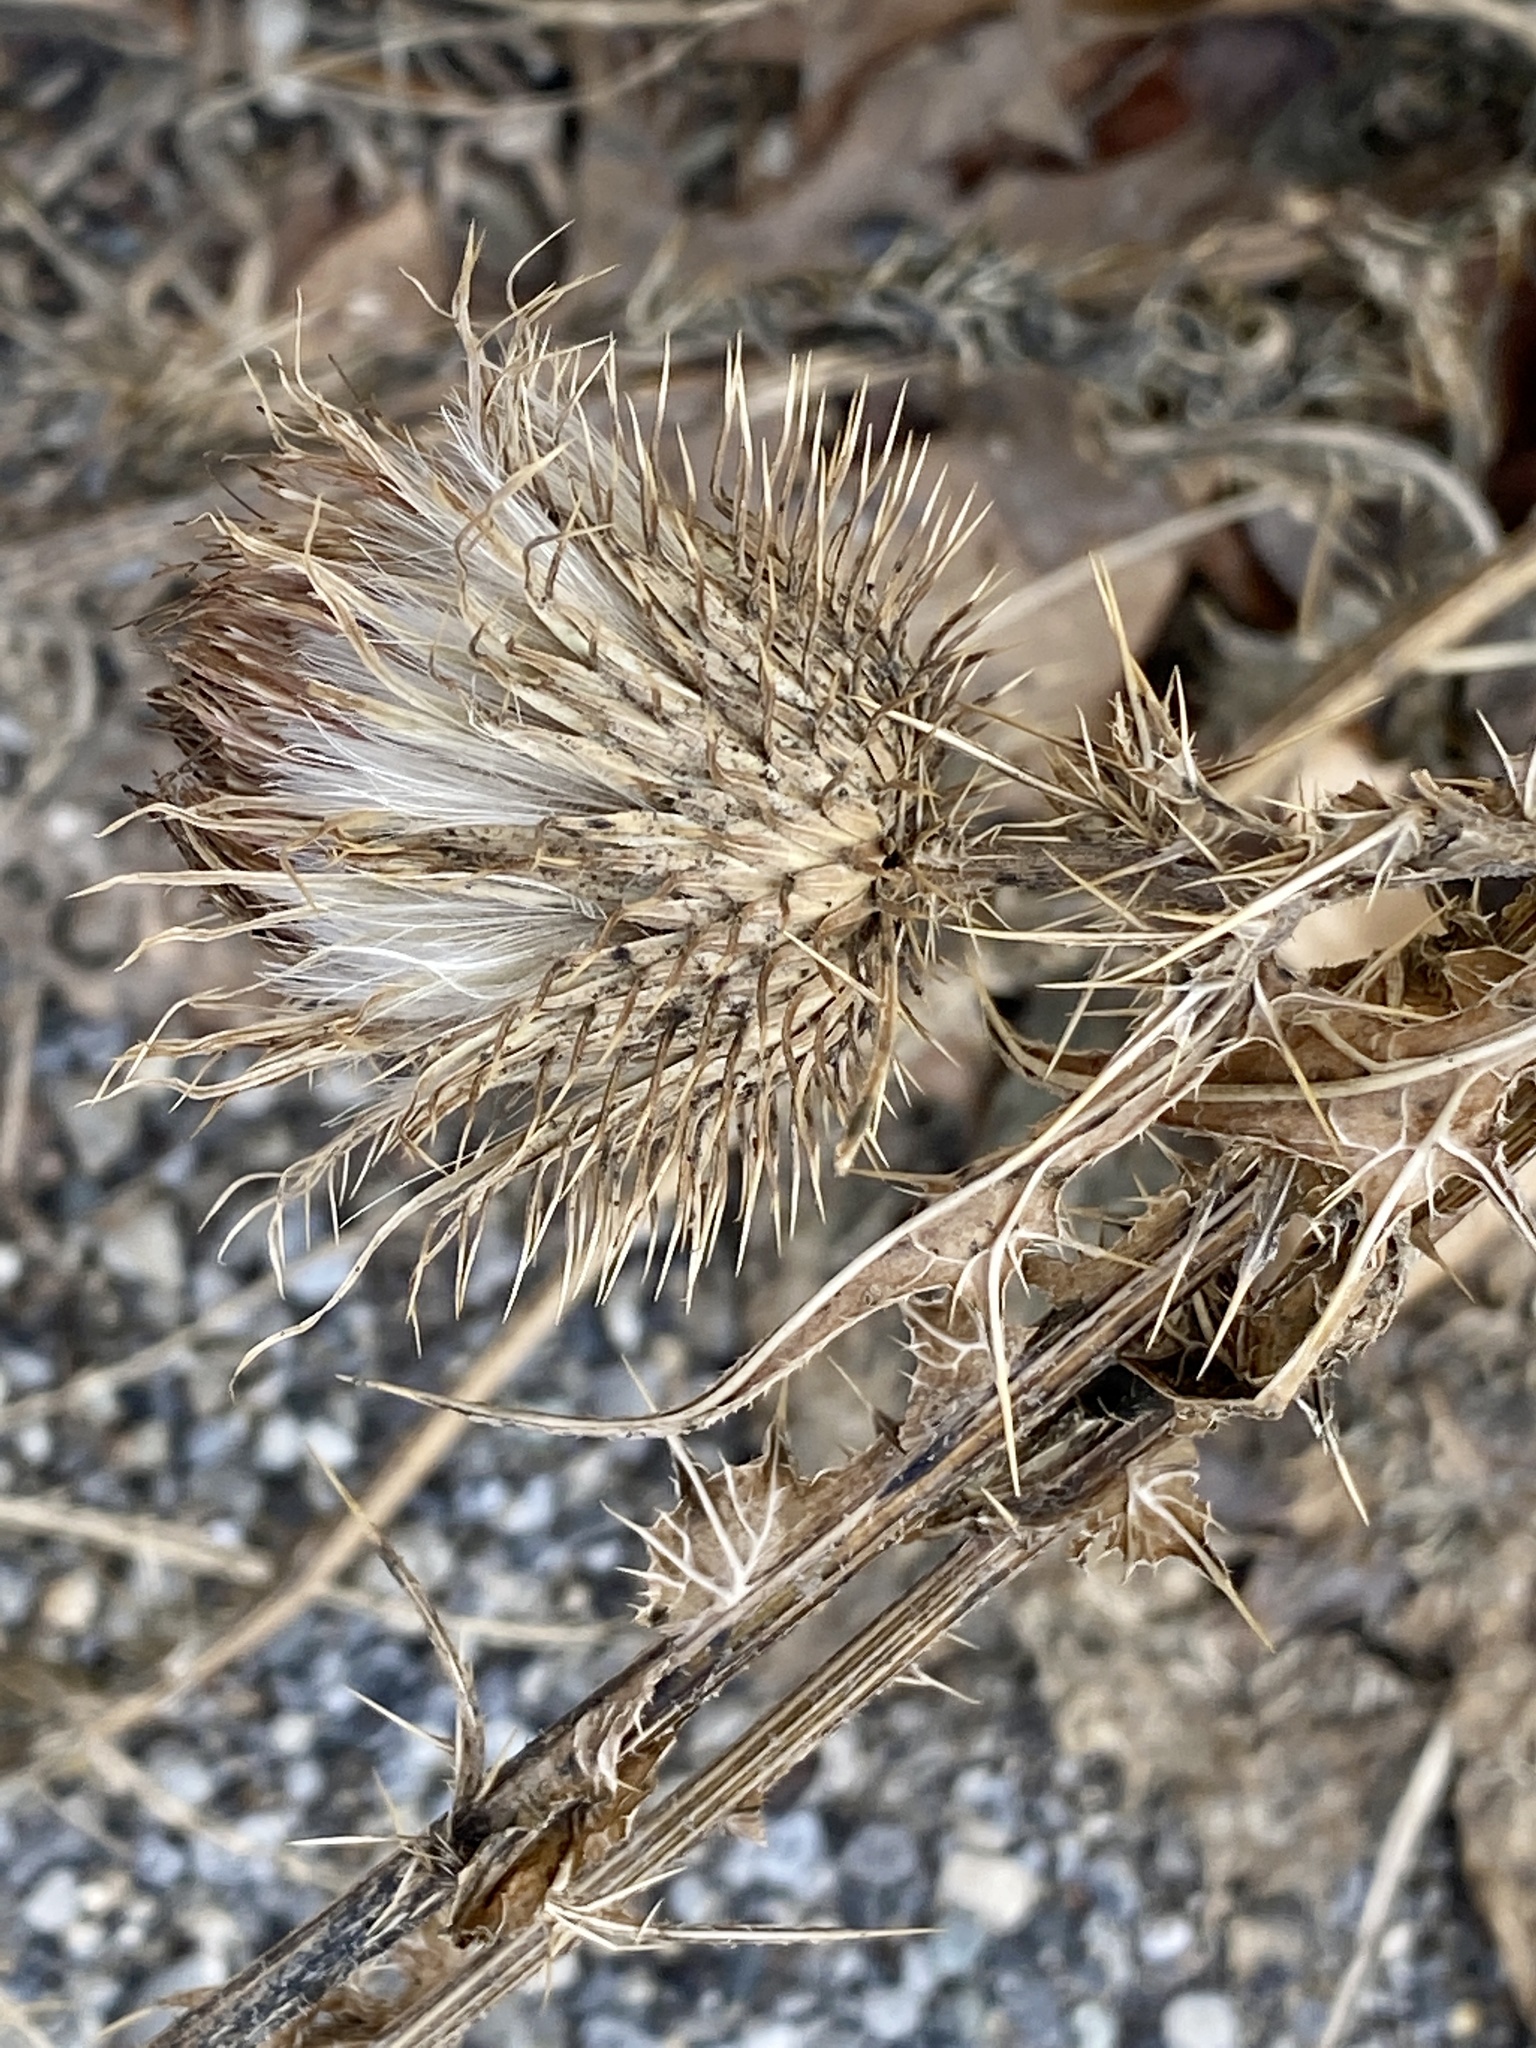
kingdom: Plantae
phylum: Tracheophyta
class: Magnoliopsida
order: Asterales
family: Asteraceae
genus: Cirsium
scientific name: Cirsium vulgare
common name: Bull thistle
